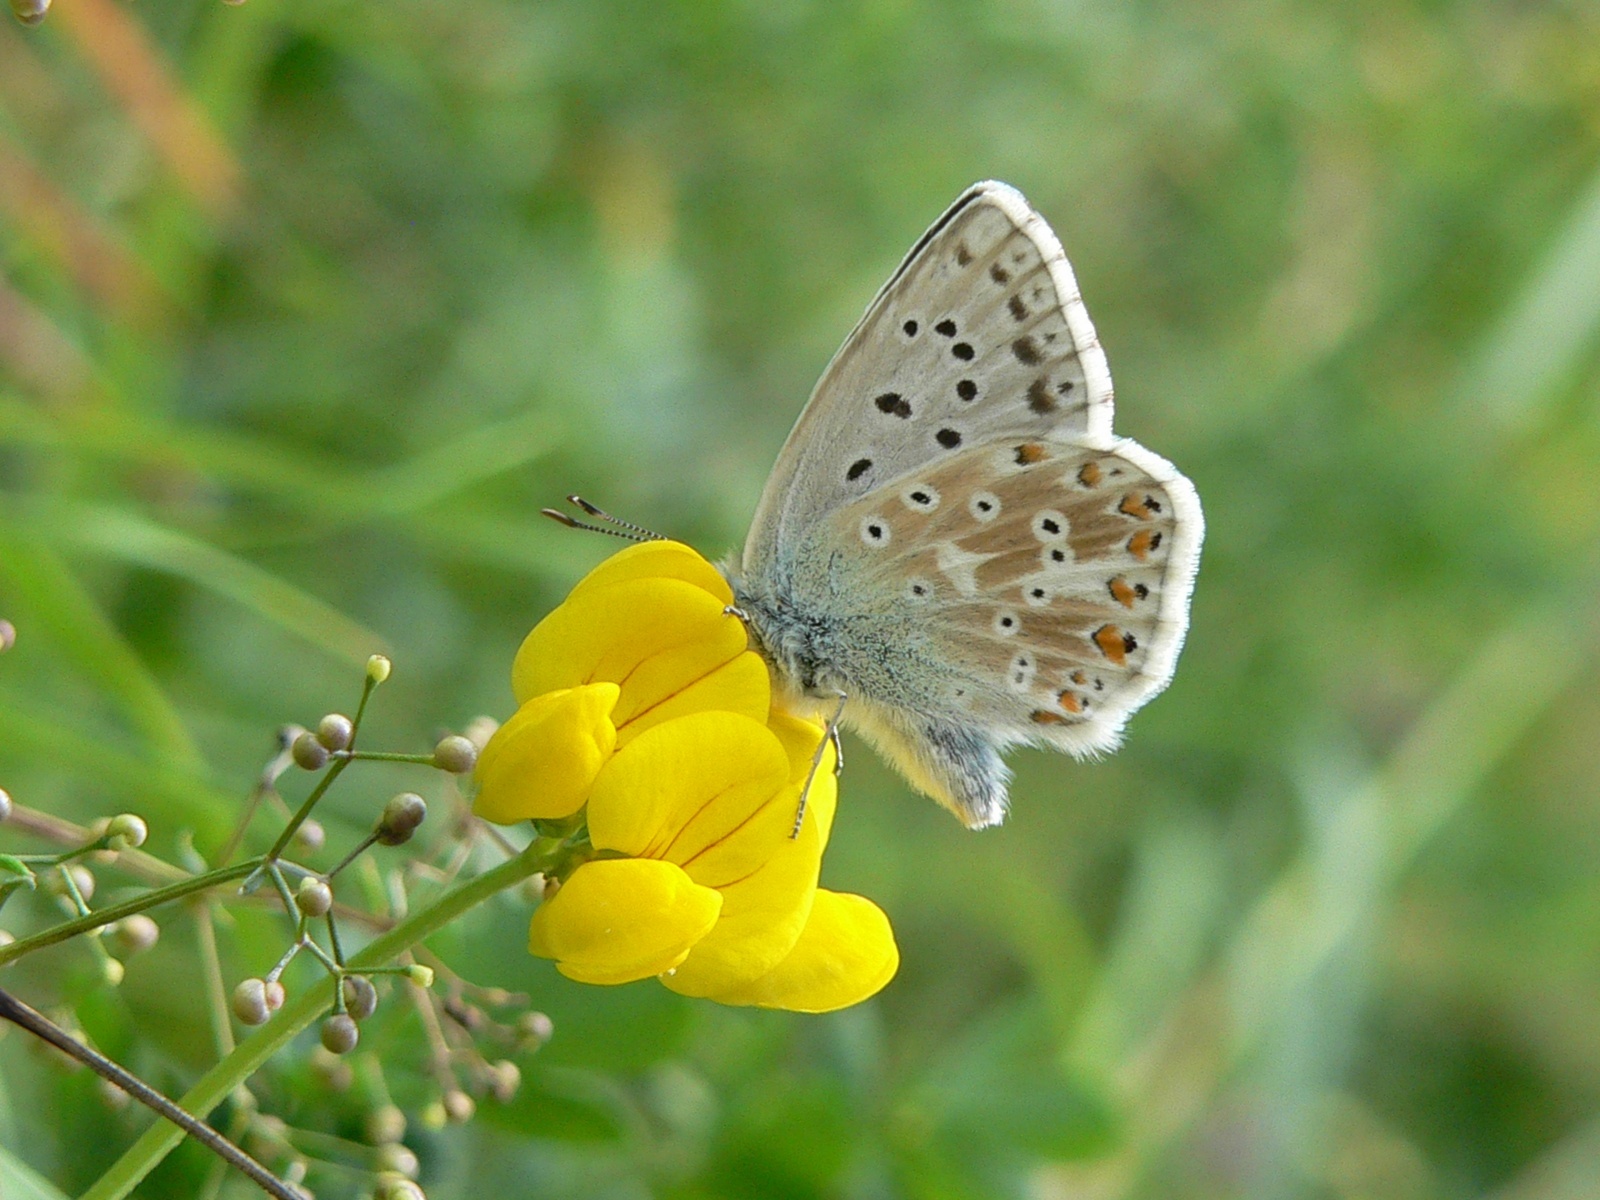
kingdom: Animalia
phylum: Arthropoda
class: Insecta
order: Lepidoptera
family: Lycaenidae
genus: Lysandra
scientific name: Lysandra coridon
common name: Chalkhill blue
